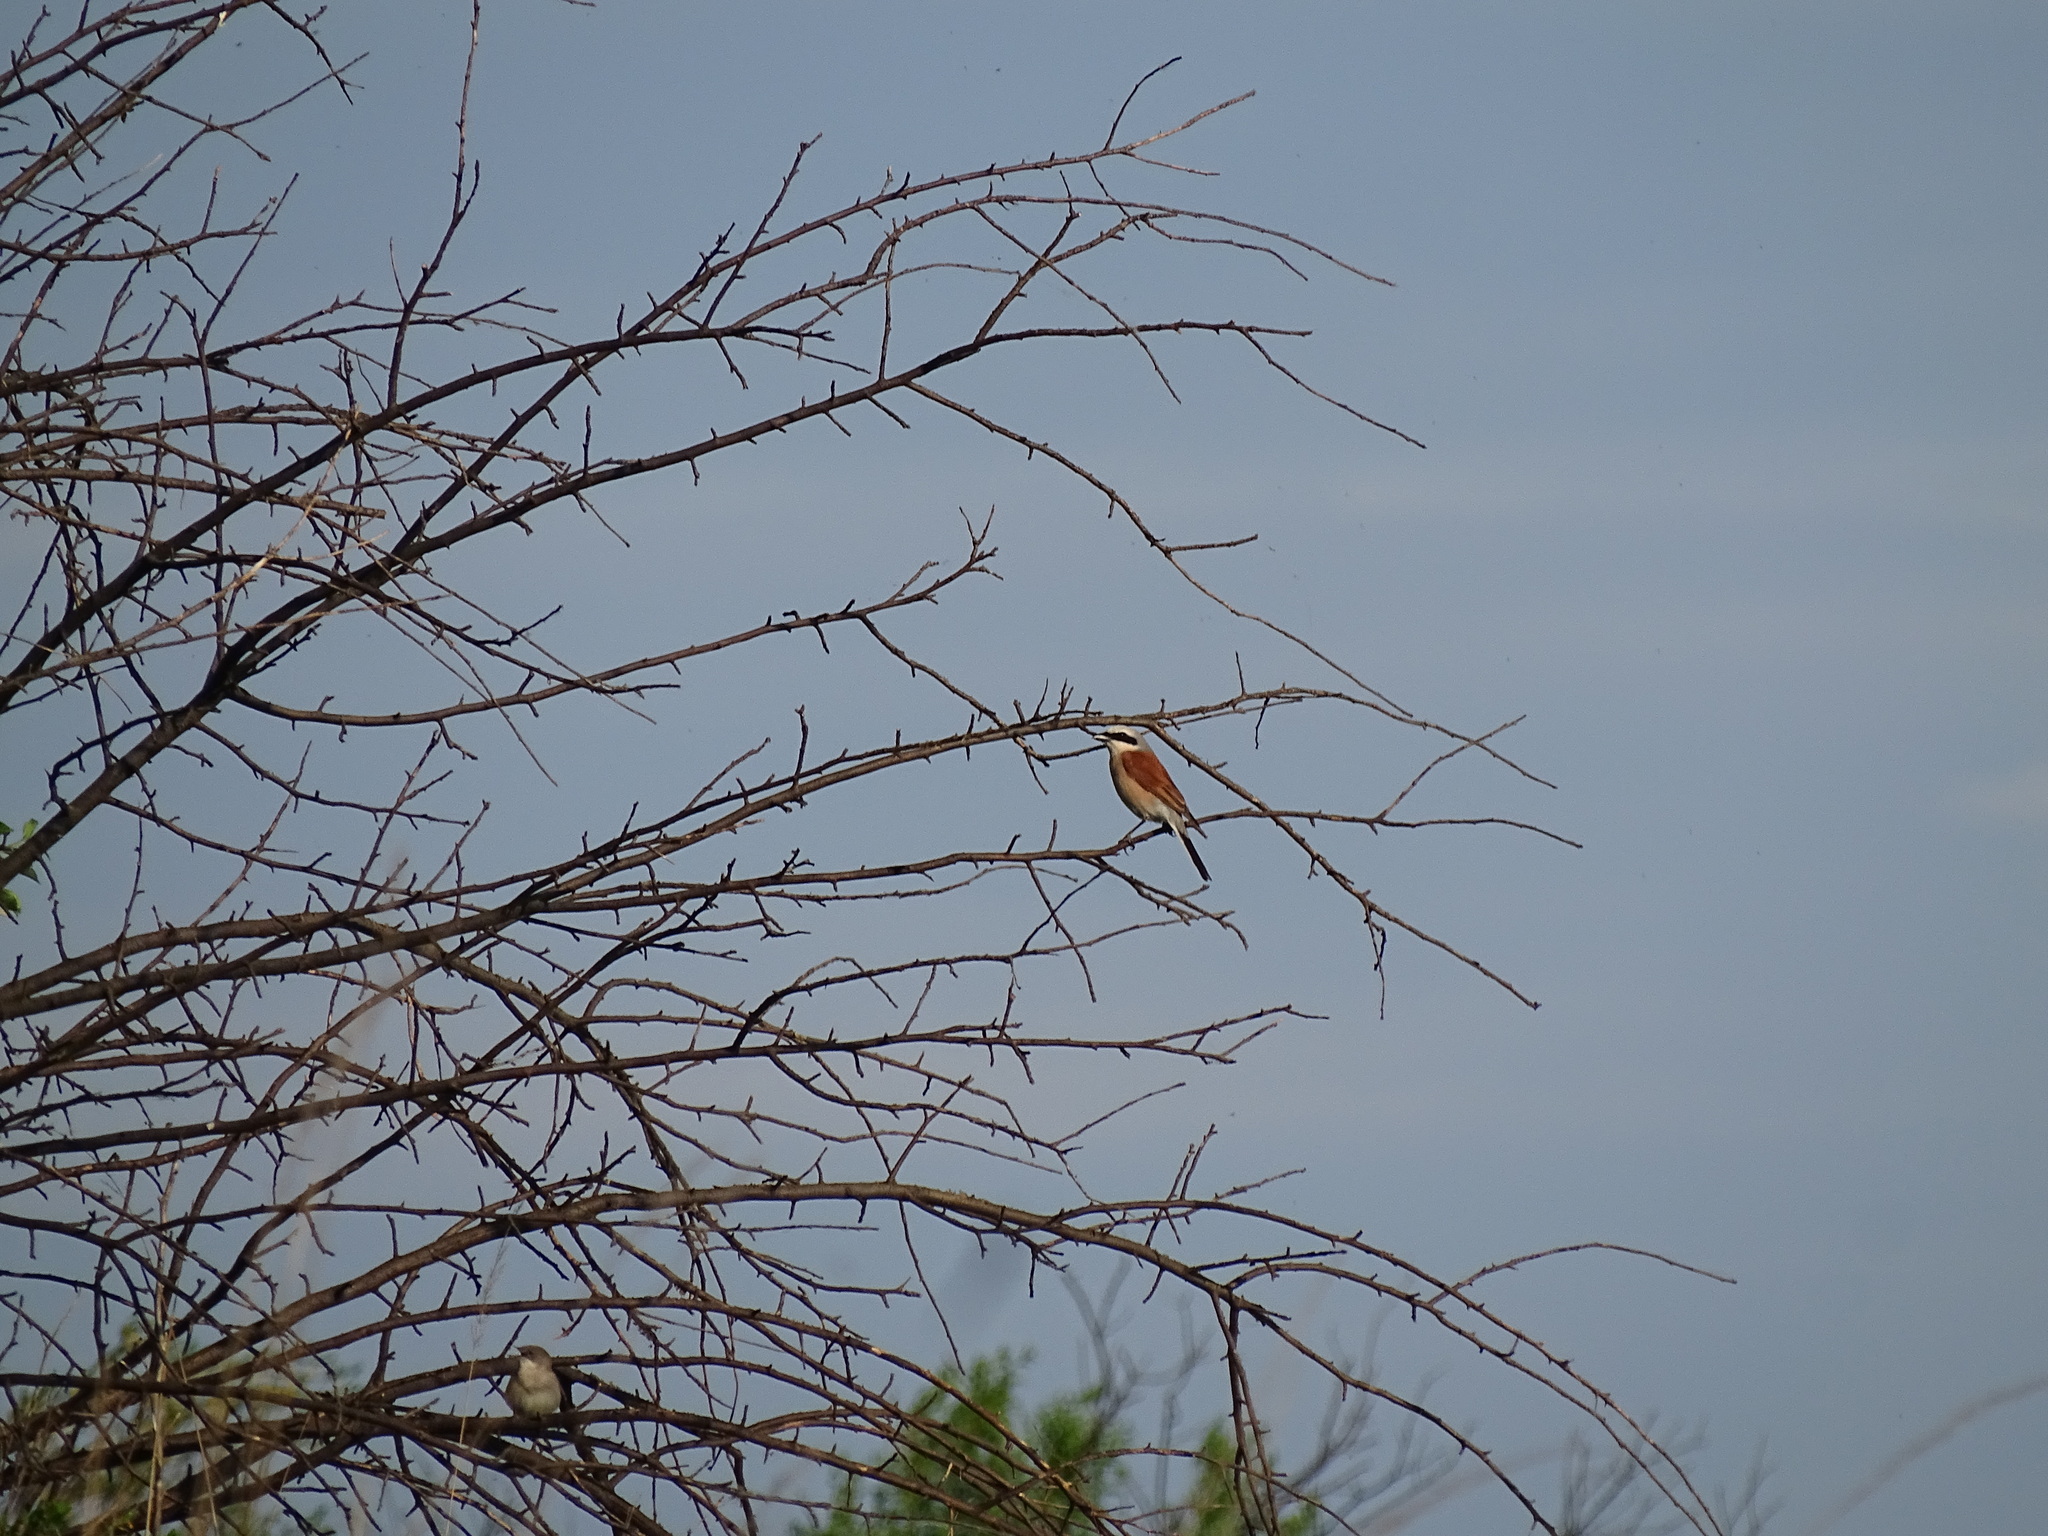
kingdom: Animalia
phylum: Chordata
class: Aves
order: Passeriformes
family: Laniidae
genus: Lanius
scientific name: Lanius collurio
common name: Red-backed shrike
